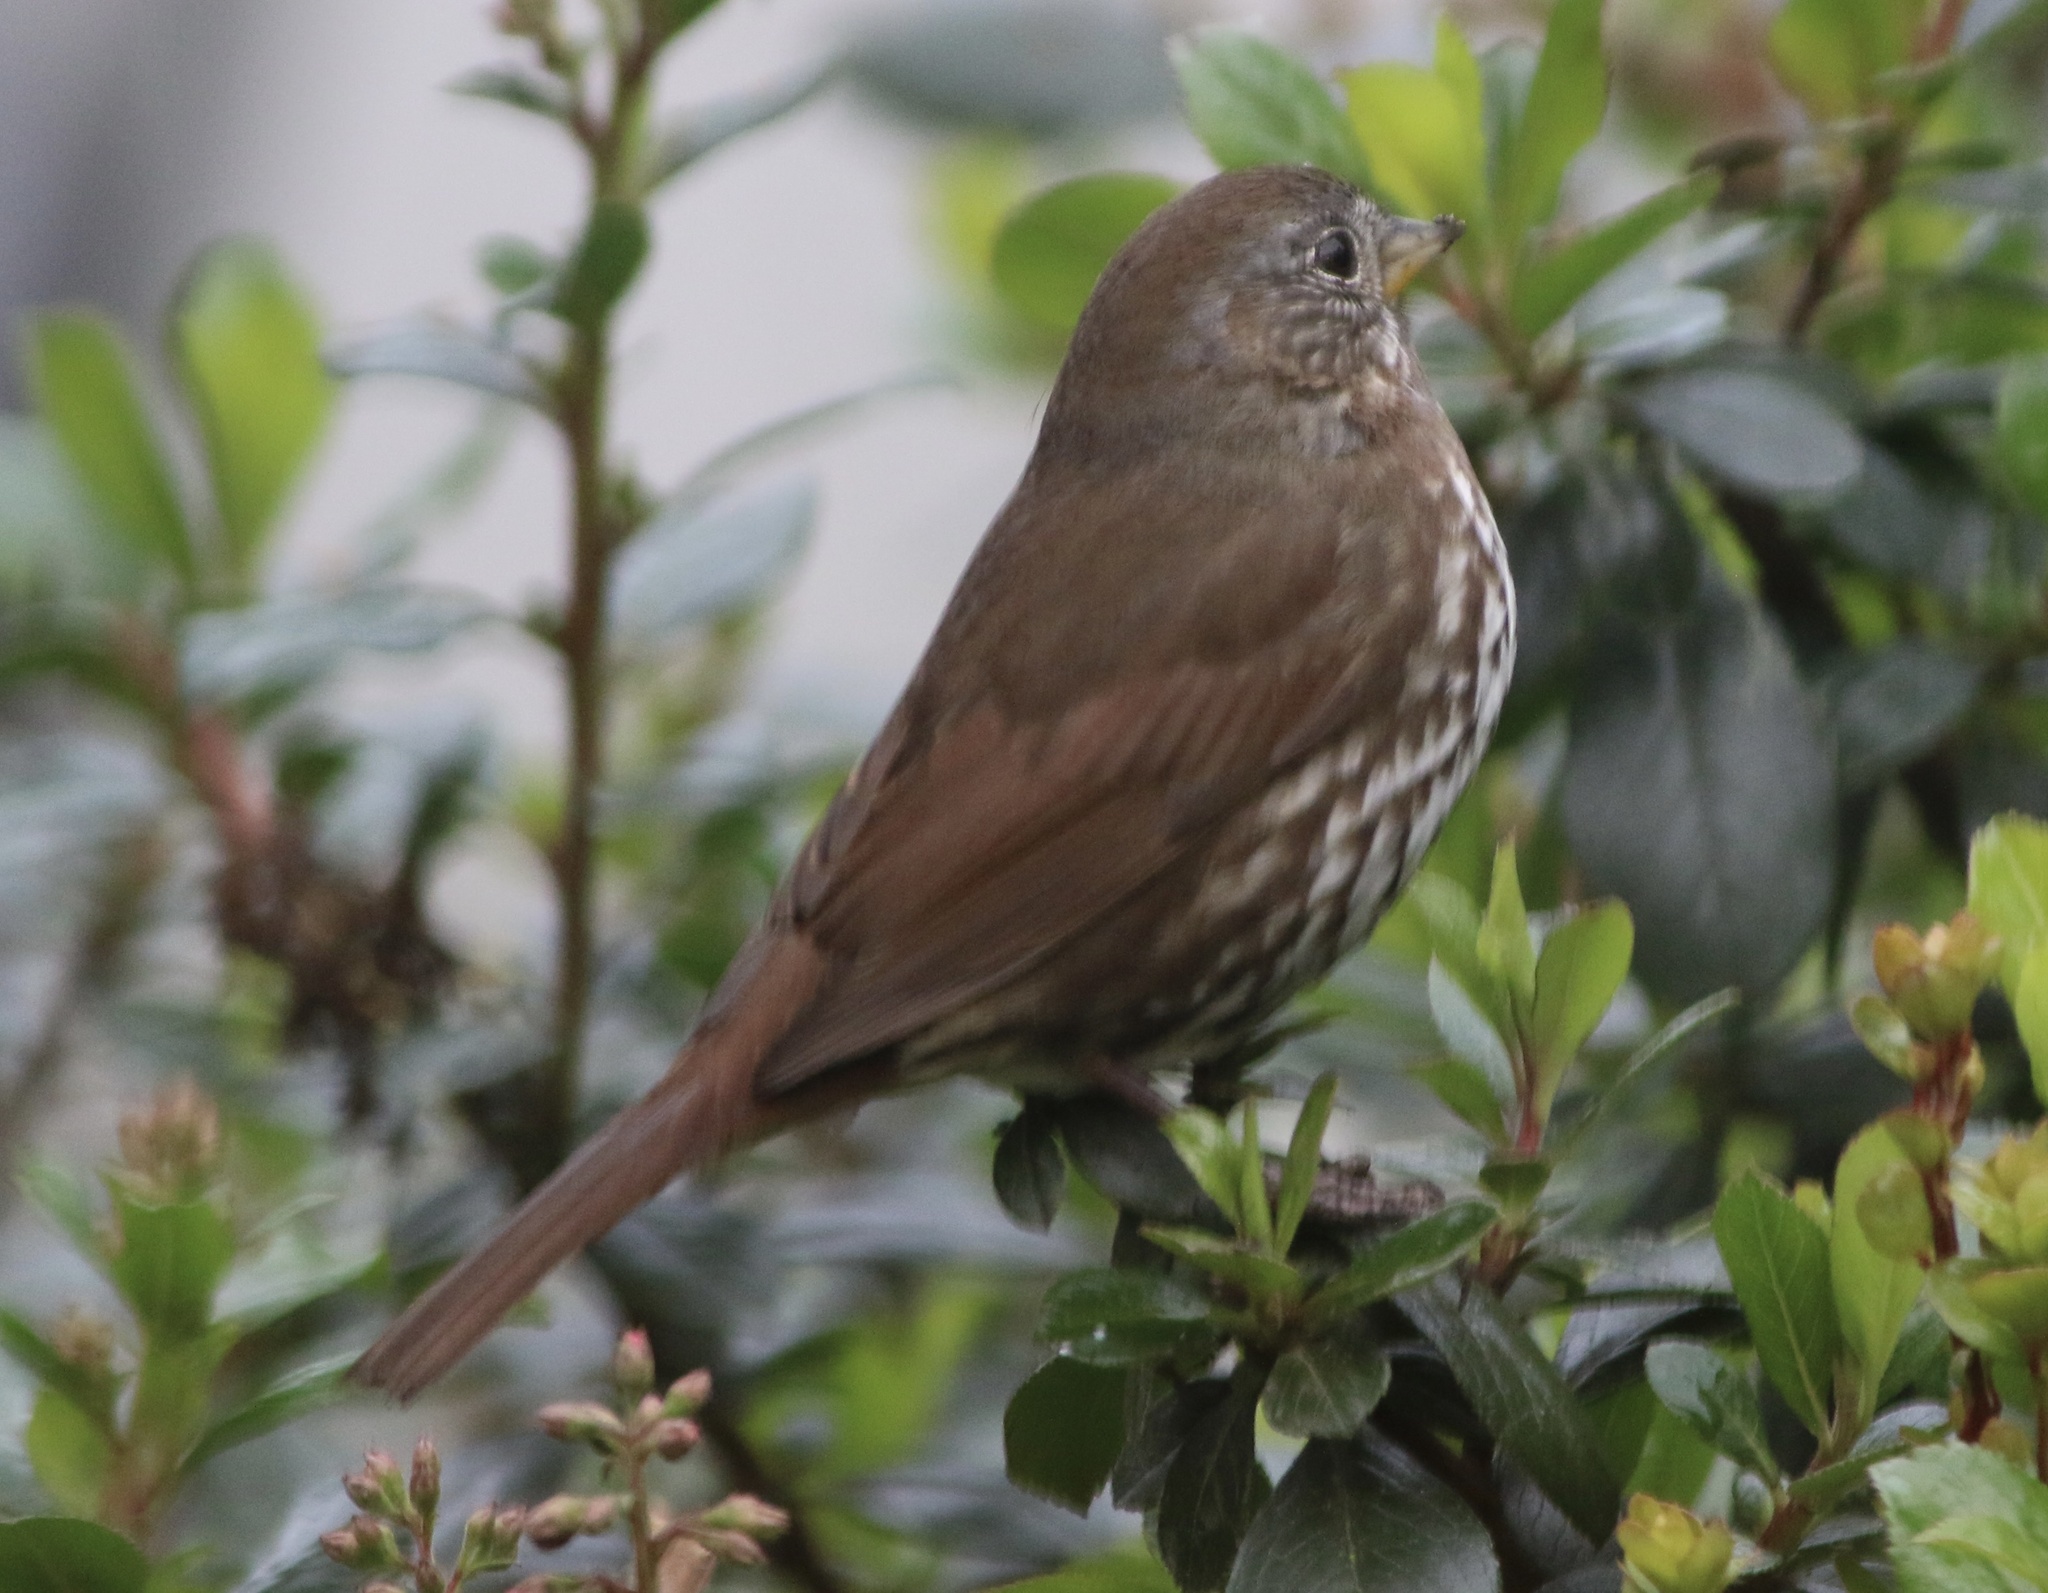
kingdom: Animalia
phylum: Chordata
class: Aves
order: Passeriformes
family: Passerellidae
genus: Passerella
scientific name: Passerella iliaca
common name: Fox sparrow
